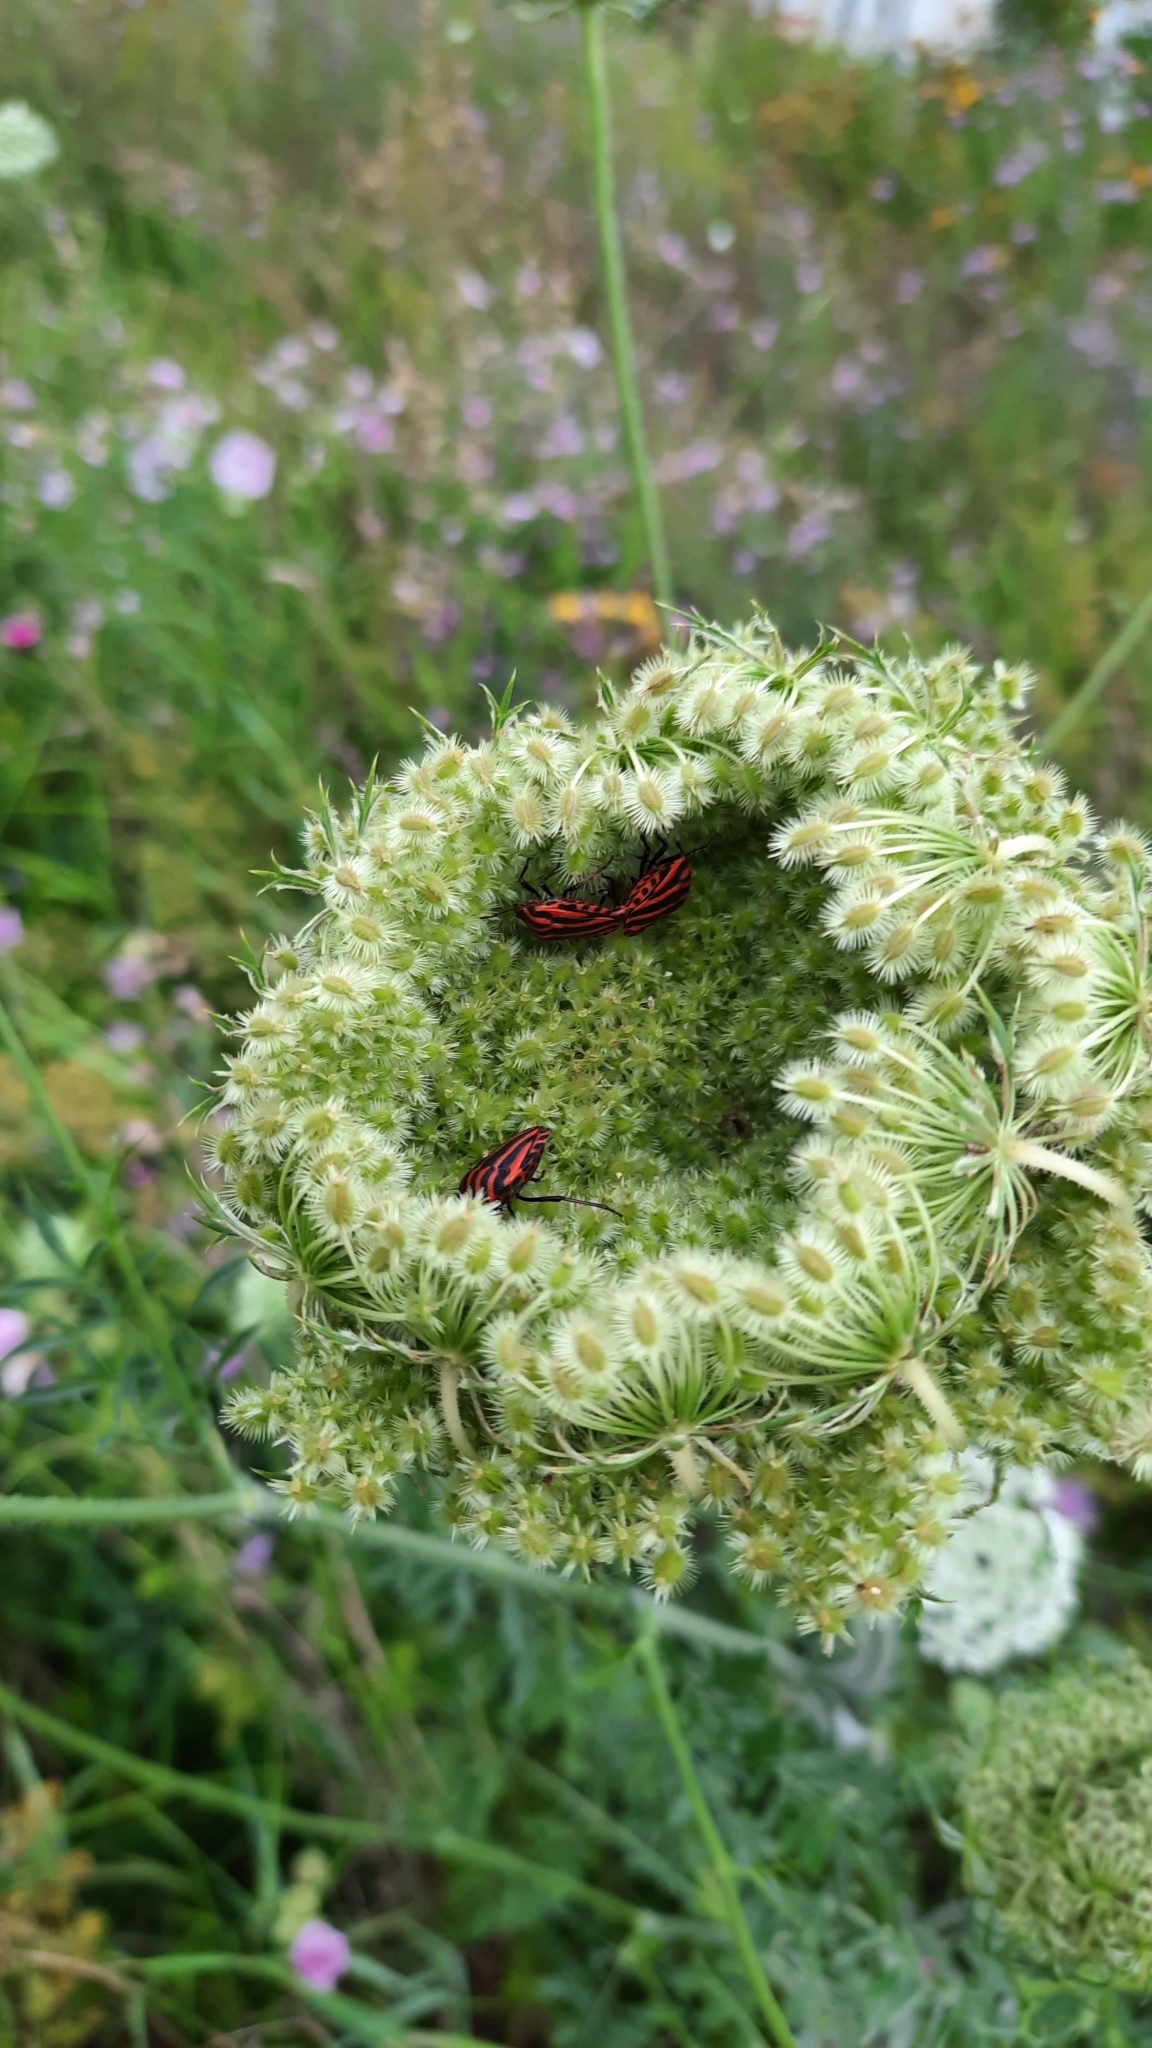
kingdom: Animalia
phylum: Arthropoda
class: Insecta
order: Hemiptera
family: Pentatomidae
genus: Graphosoma
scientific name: Graphosoma italicum
